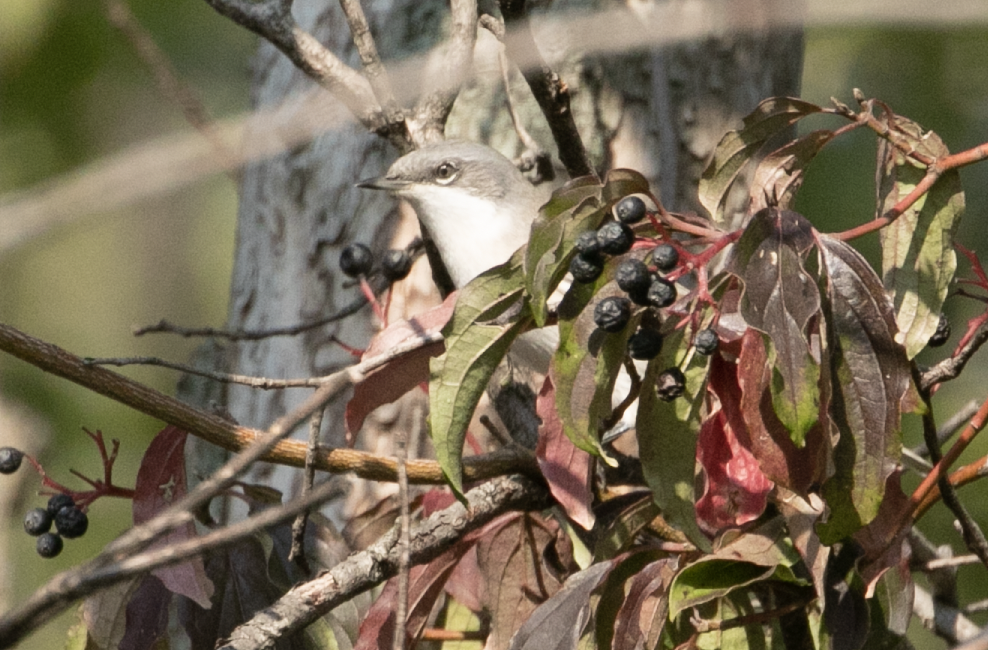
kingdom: Animalia
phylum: Chordata
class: Aves
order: Passeriformes
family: Sylviidae
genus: Sylvia
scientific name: Sylvia curruca
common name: Lesser whitethroat
